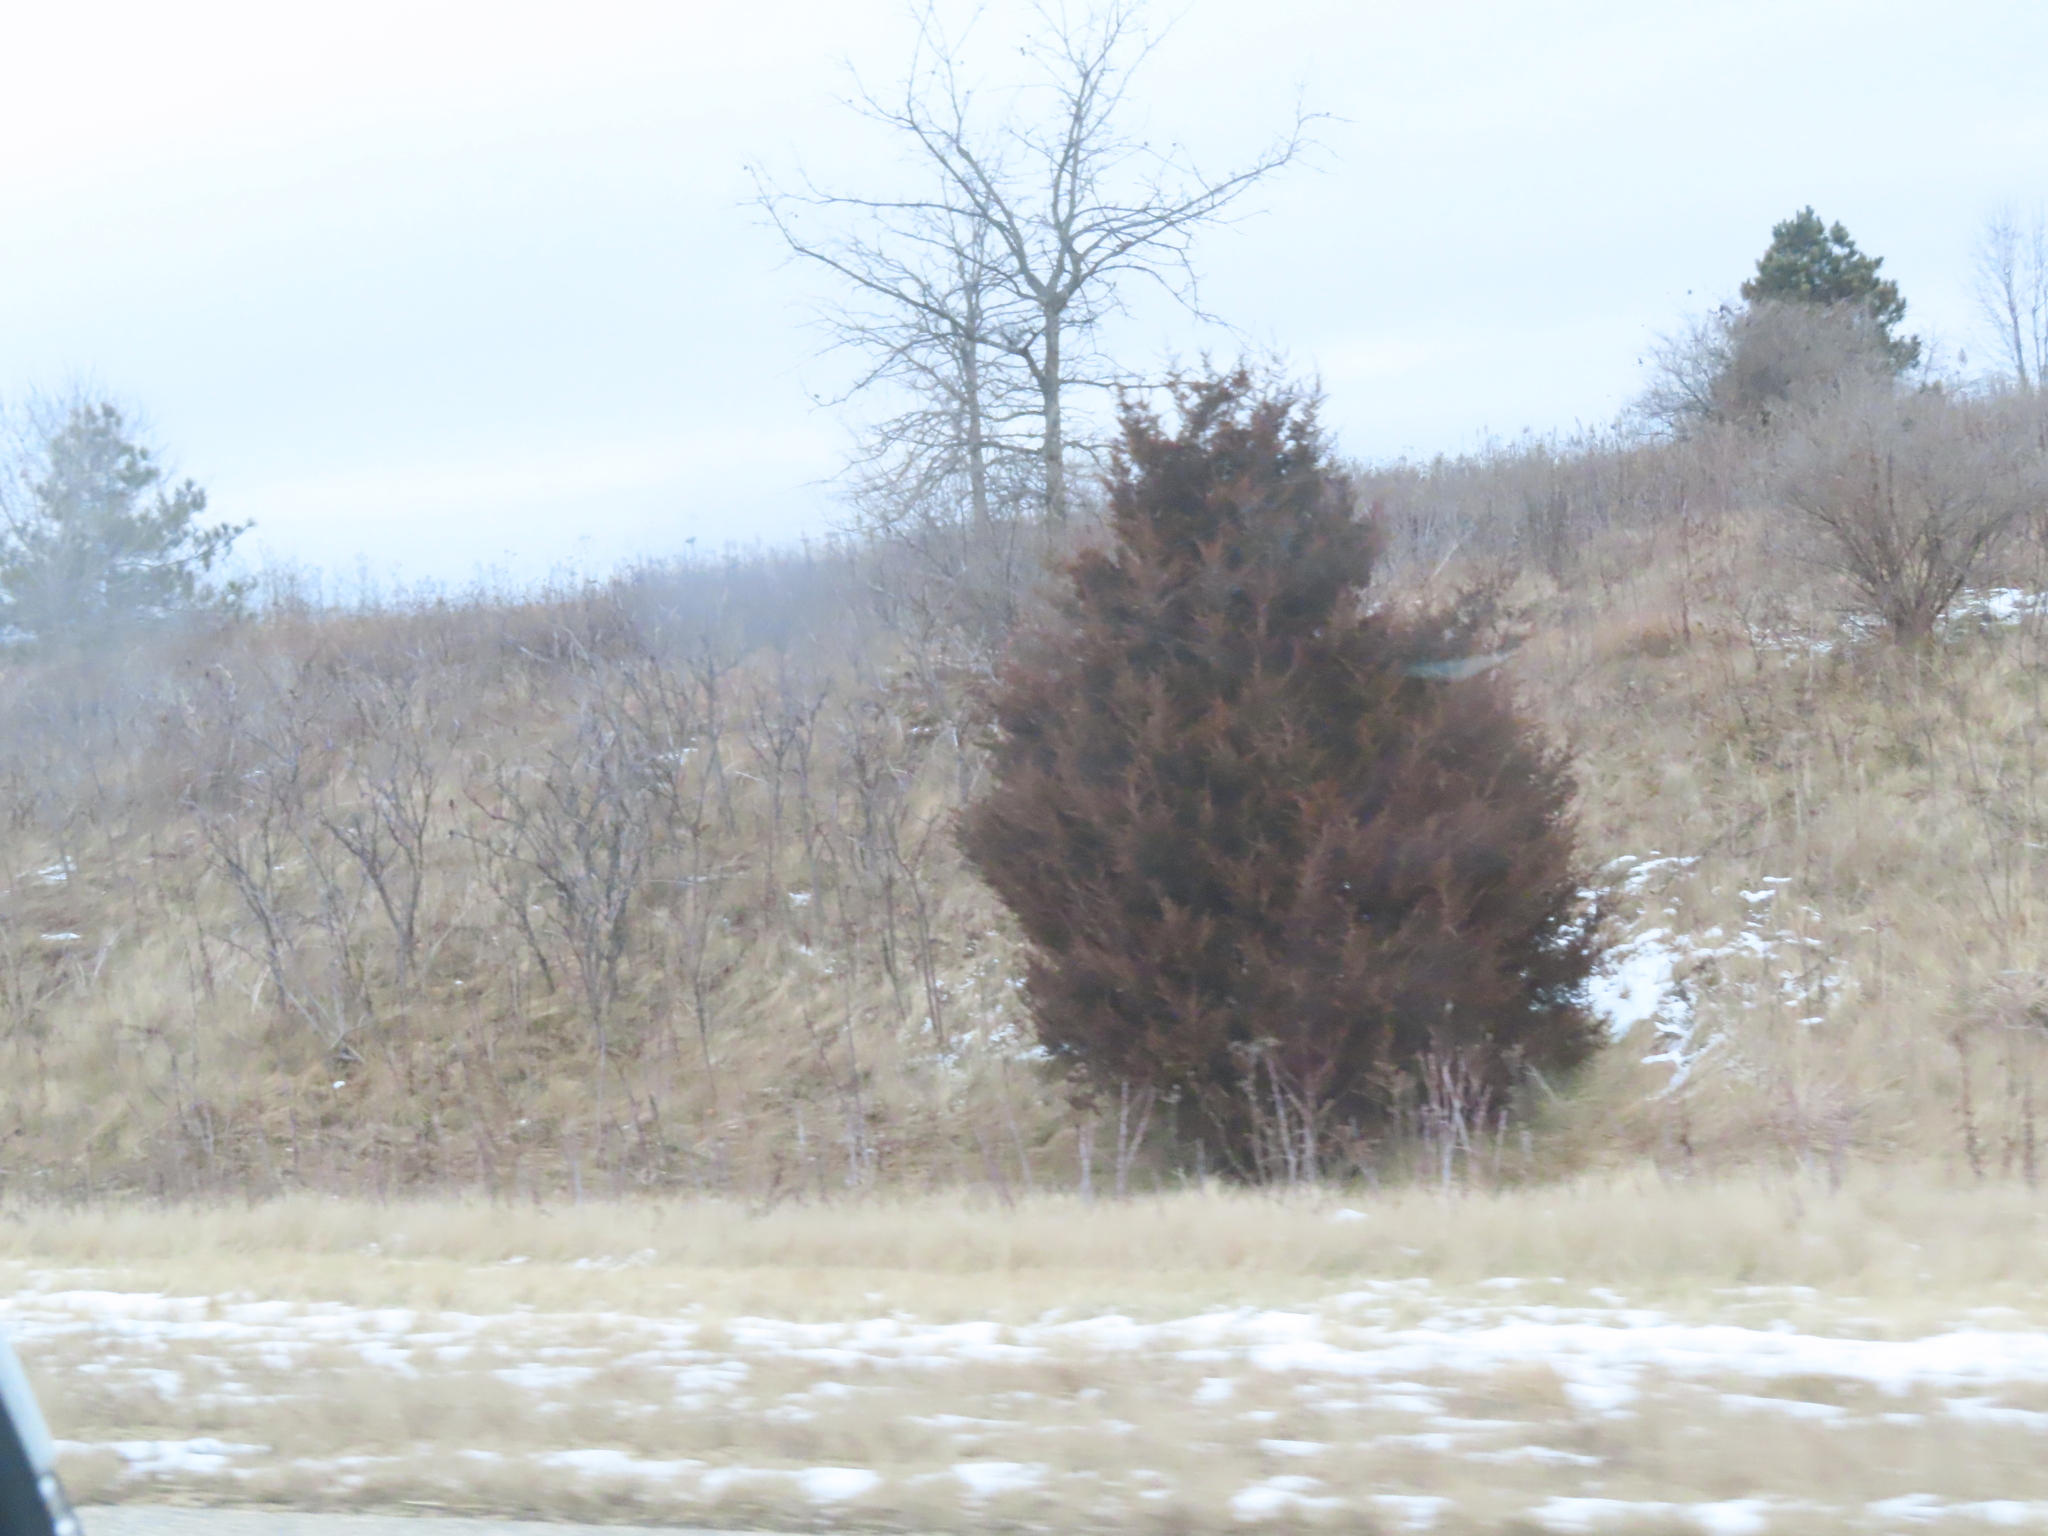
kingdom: Plantae
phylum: Tracheophyta
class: Pinopsida
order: Pinales
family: Cupressaceae
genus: Juniperus
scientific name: Juniperus virginiana
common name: Red juniper
